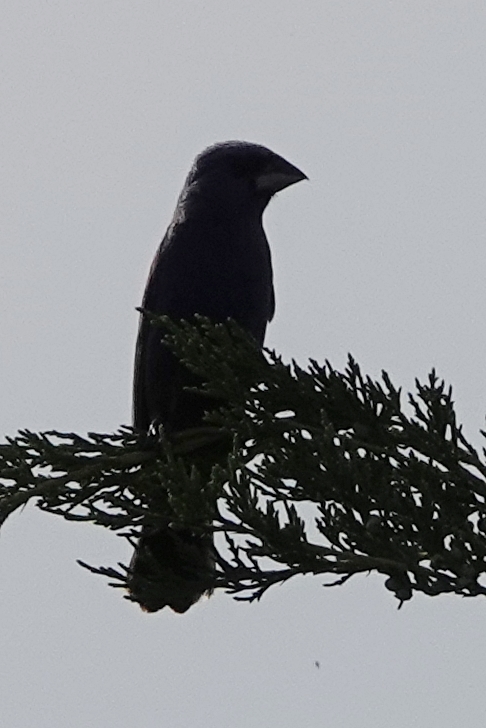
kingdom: Animalia
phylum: Chordata
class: Aves
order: Passeriformes
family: Cardinalidae
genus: Passerina
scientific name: Passerina caerulea
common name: Blue grosbeak
